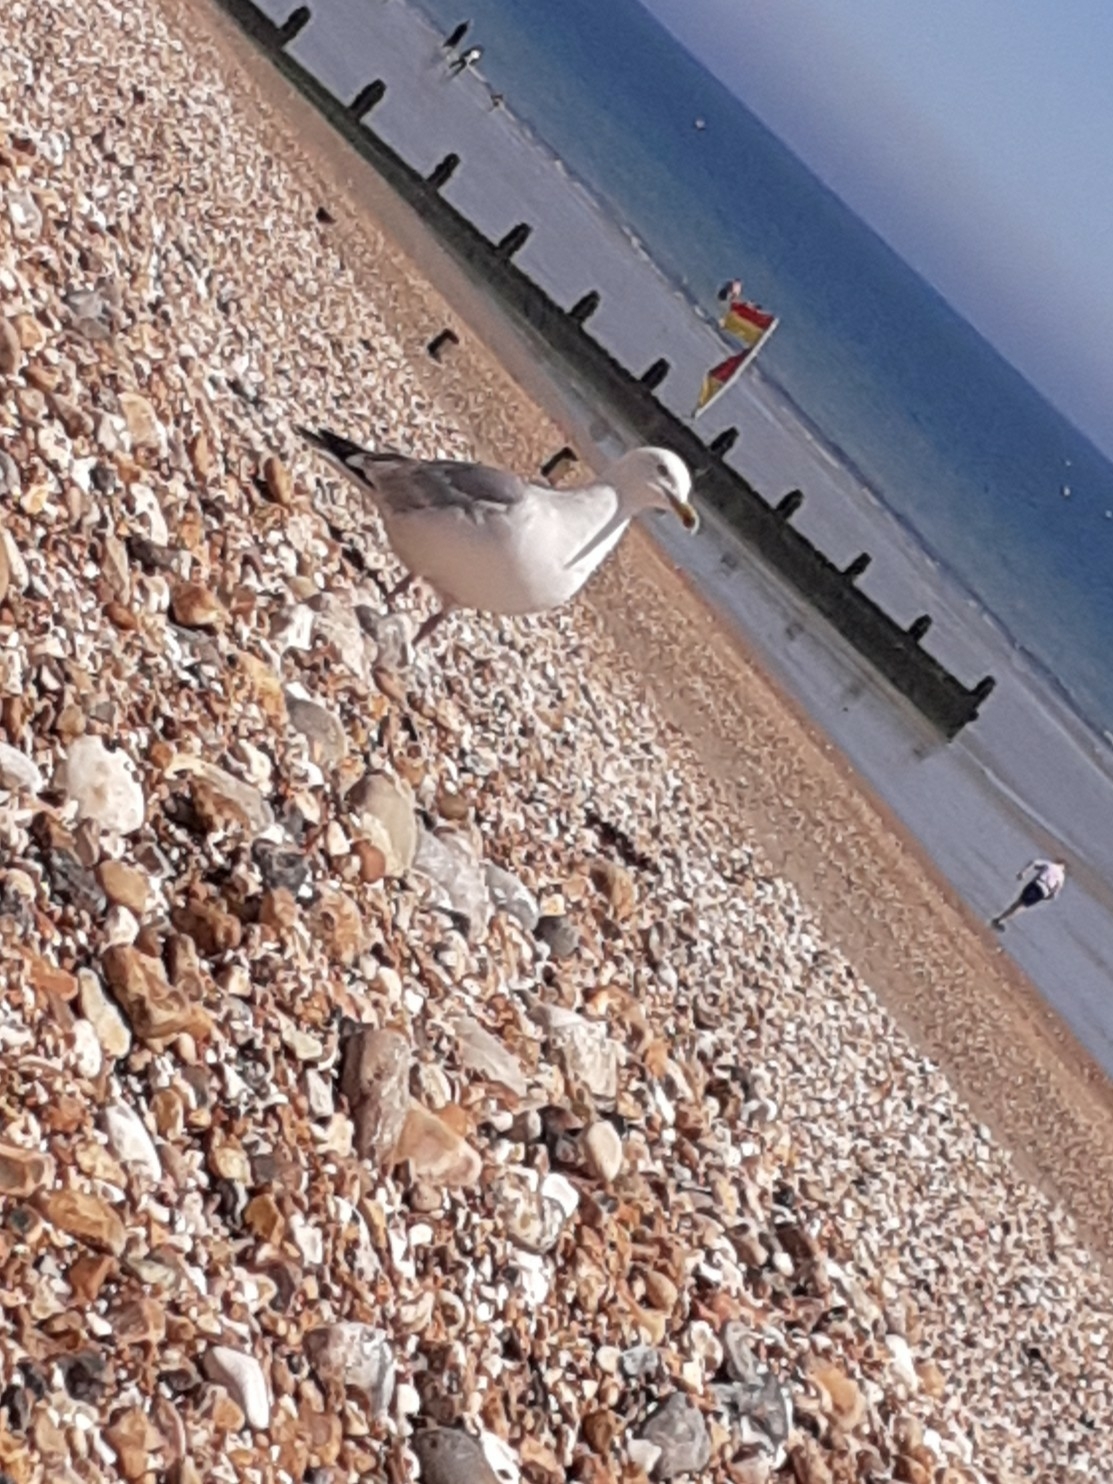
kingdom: Animalia
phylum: Chordata
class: Aves
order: Charadriiformes
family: Laridae
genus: Larus
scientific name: Larus argentatus
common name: Herring gull
